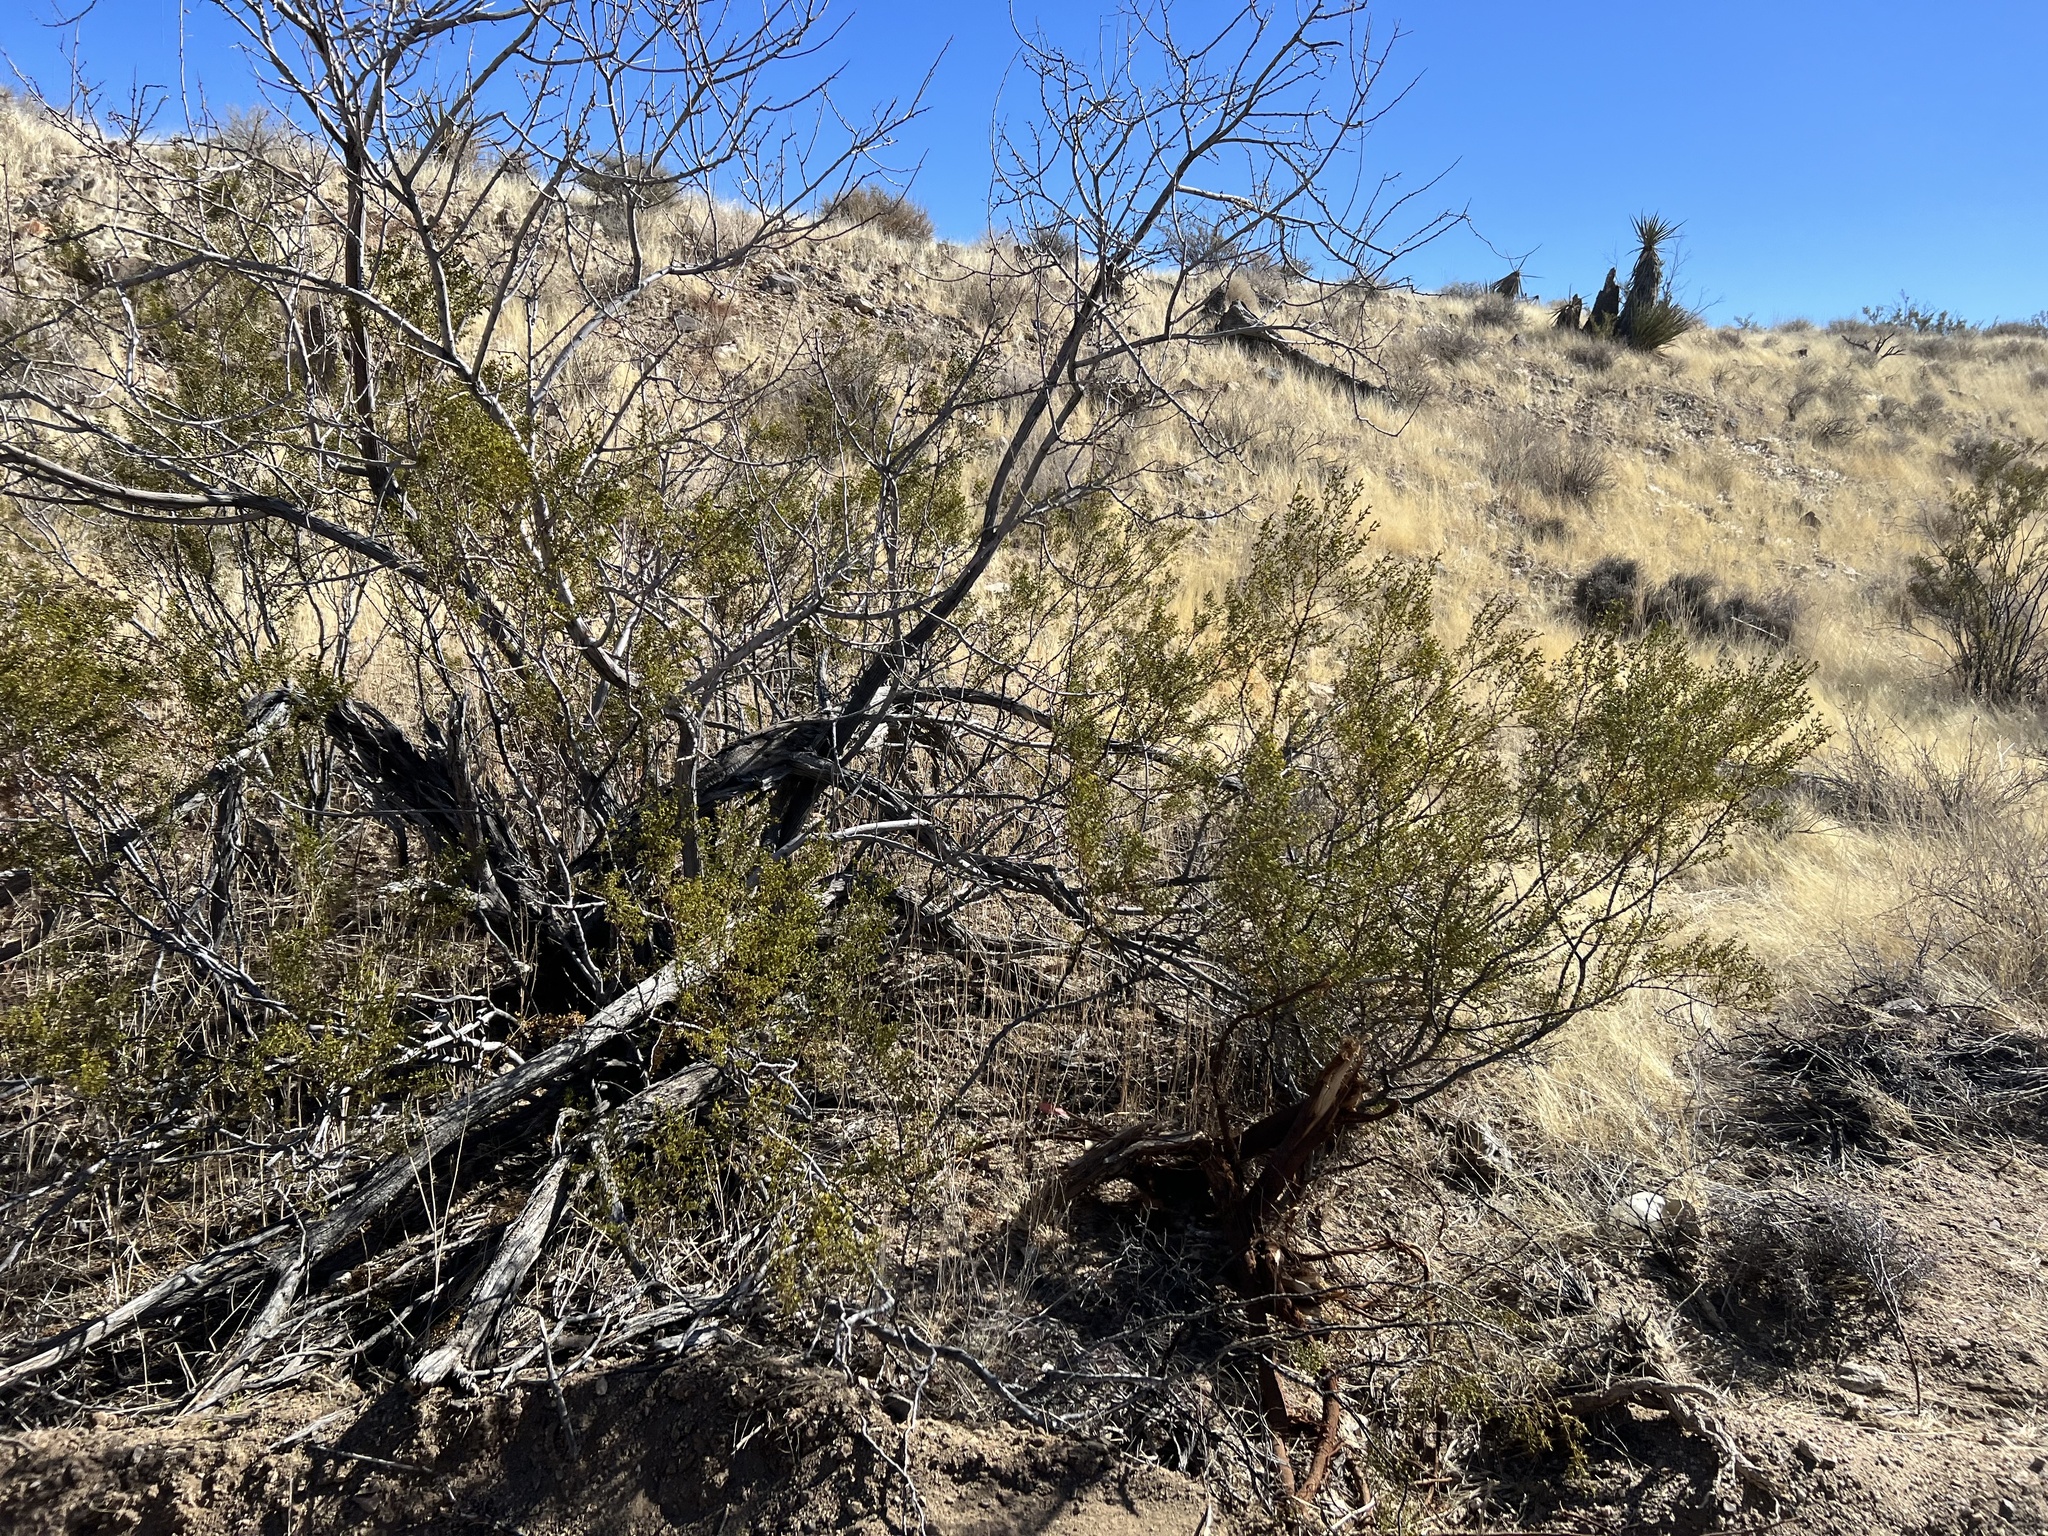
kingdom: Plantae
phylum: Tracheophyta
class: Magnoliopsida
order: Zygophyllales
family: Zygophyllaceae
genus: Larrea
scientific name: Larrea tridentata
